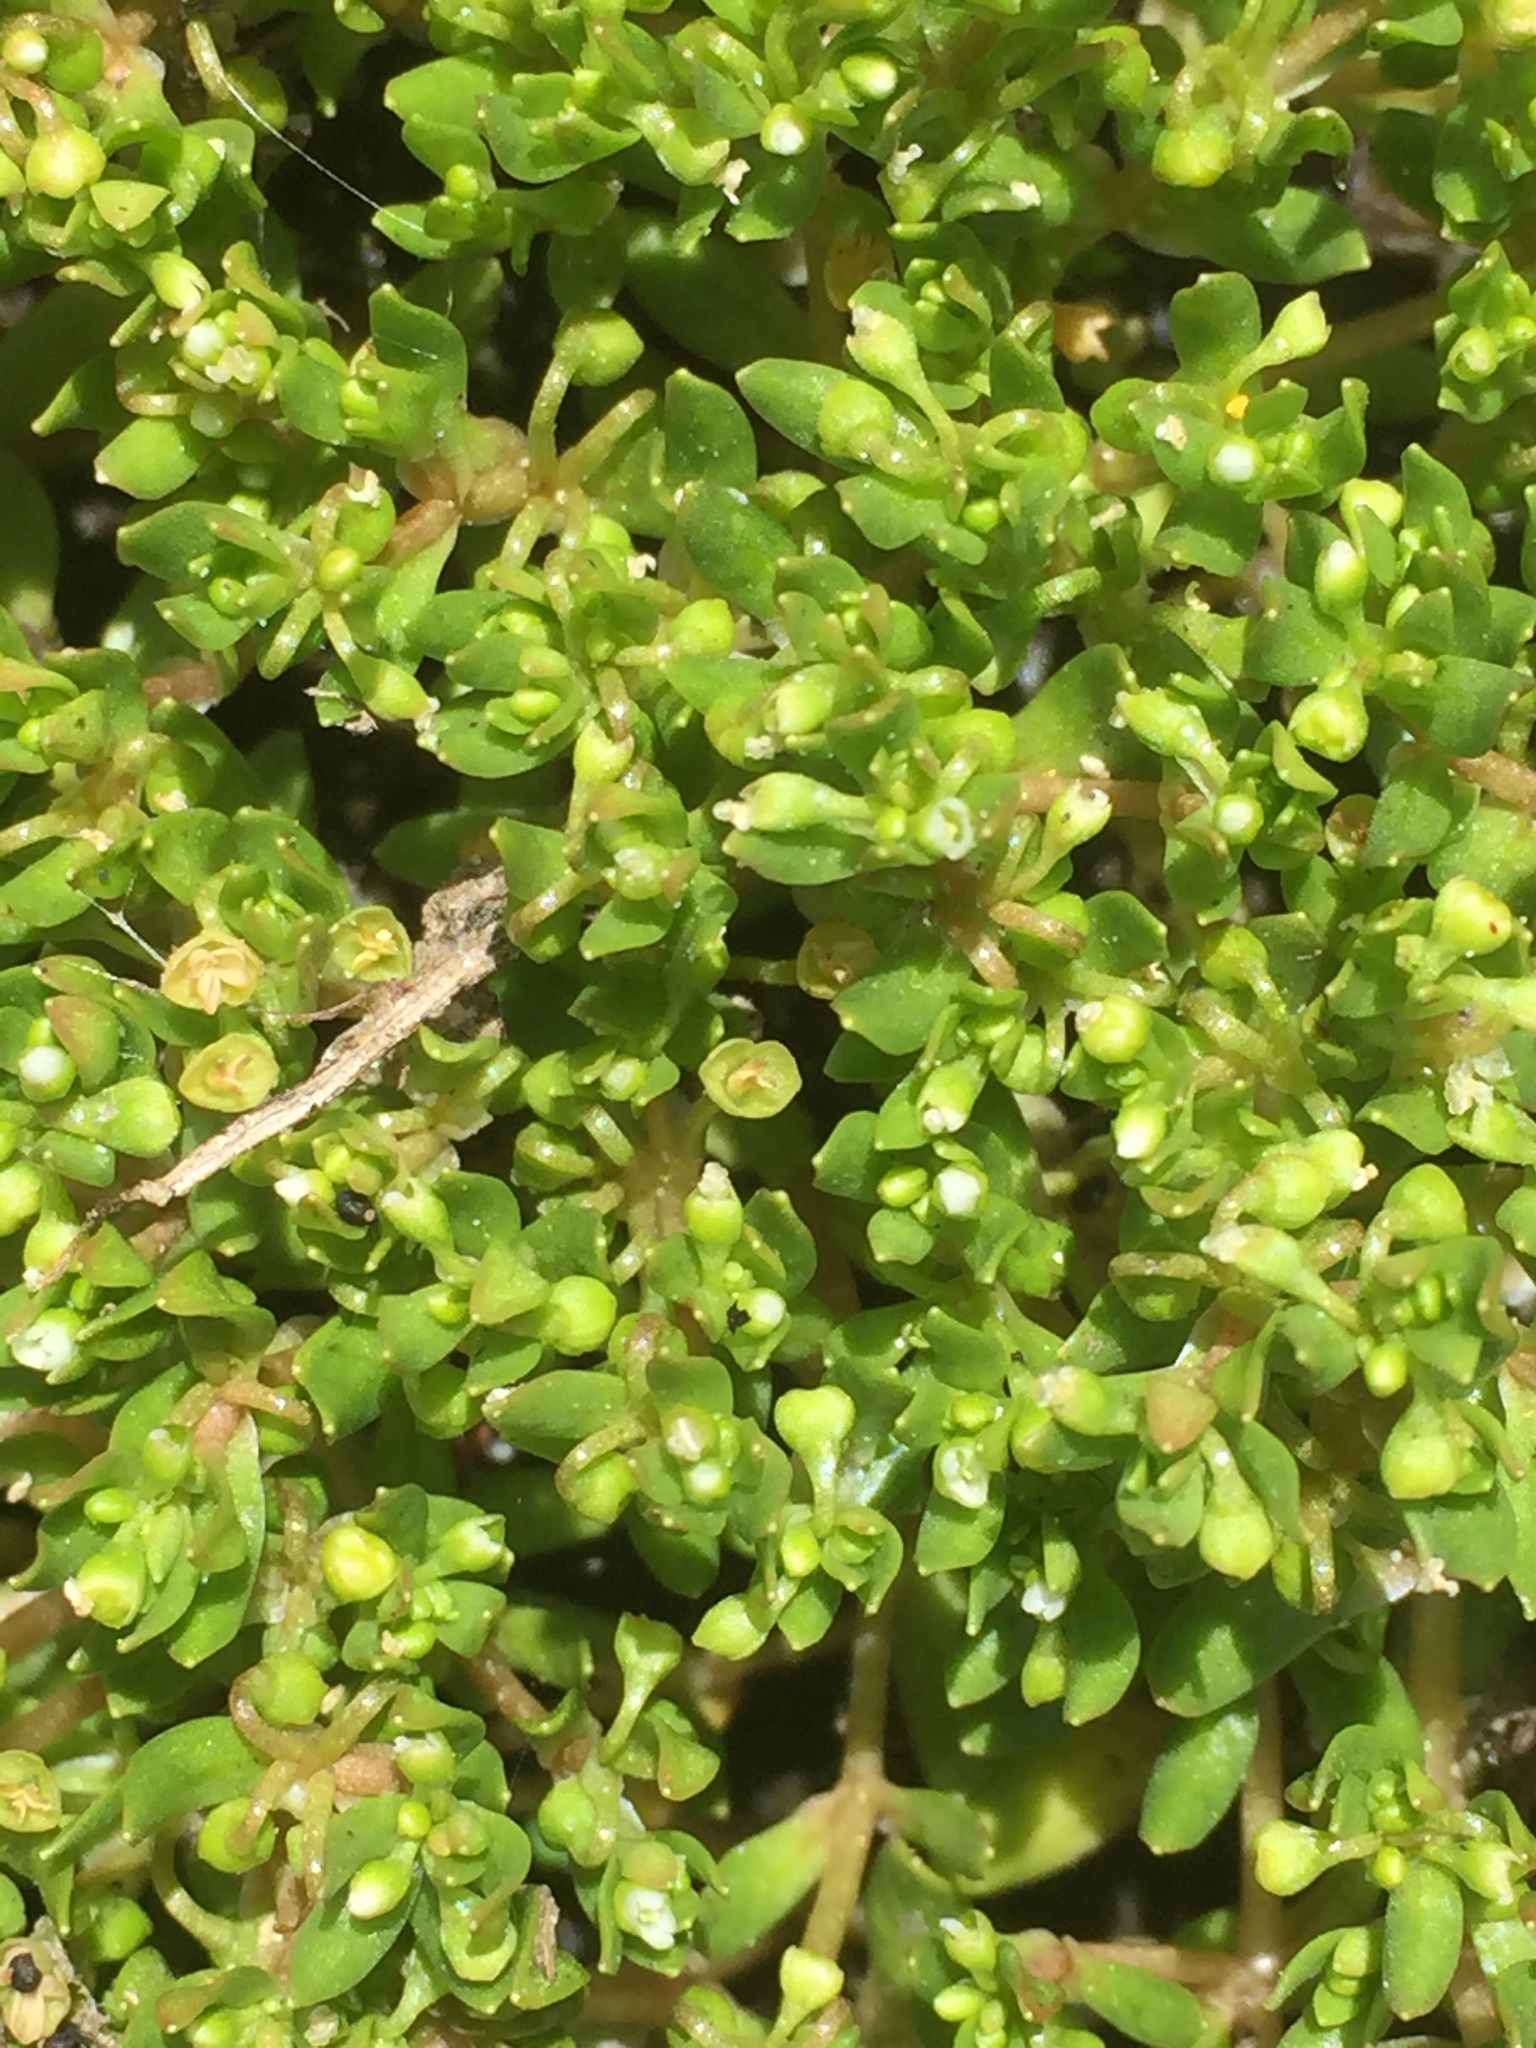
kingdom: Plantae
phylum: Tracheophyta
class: Magnoliopsida
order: Caryophyllales
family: Montiaceae
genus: Montia
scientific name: Montia fontana
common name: Blinks
